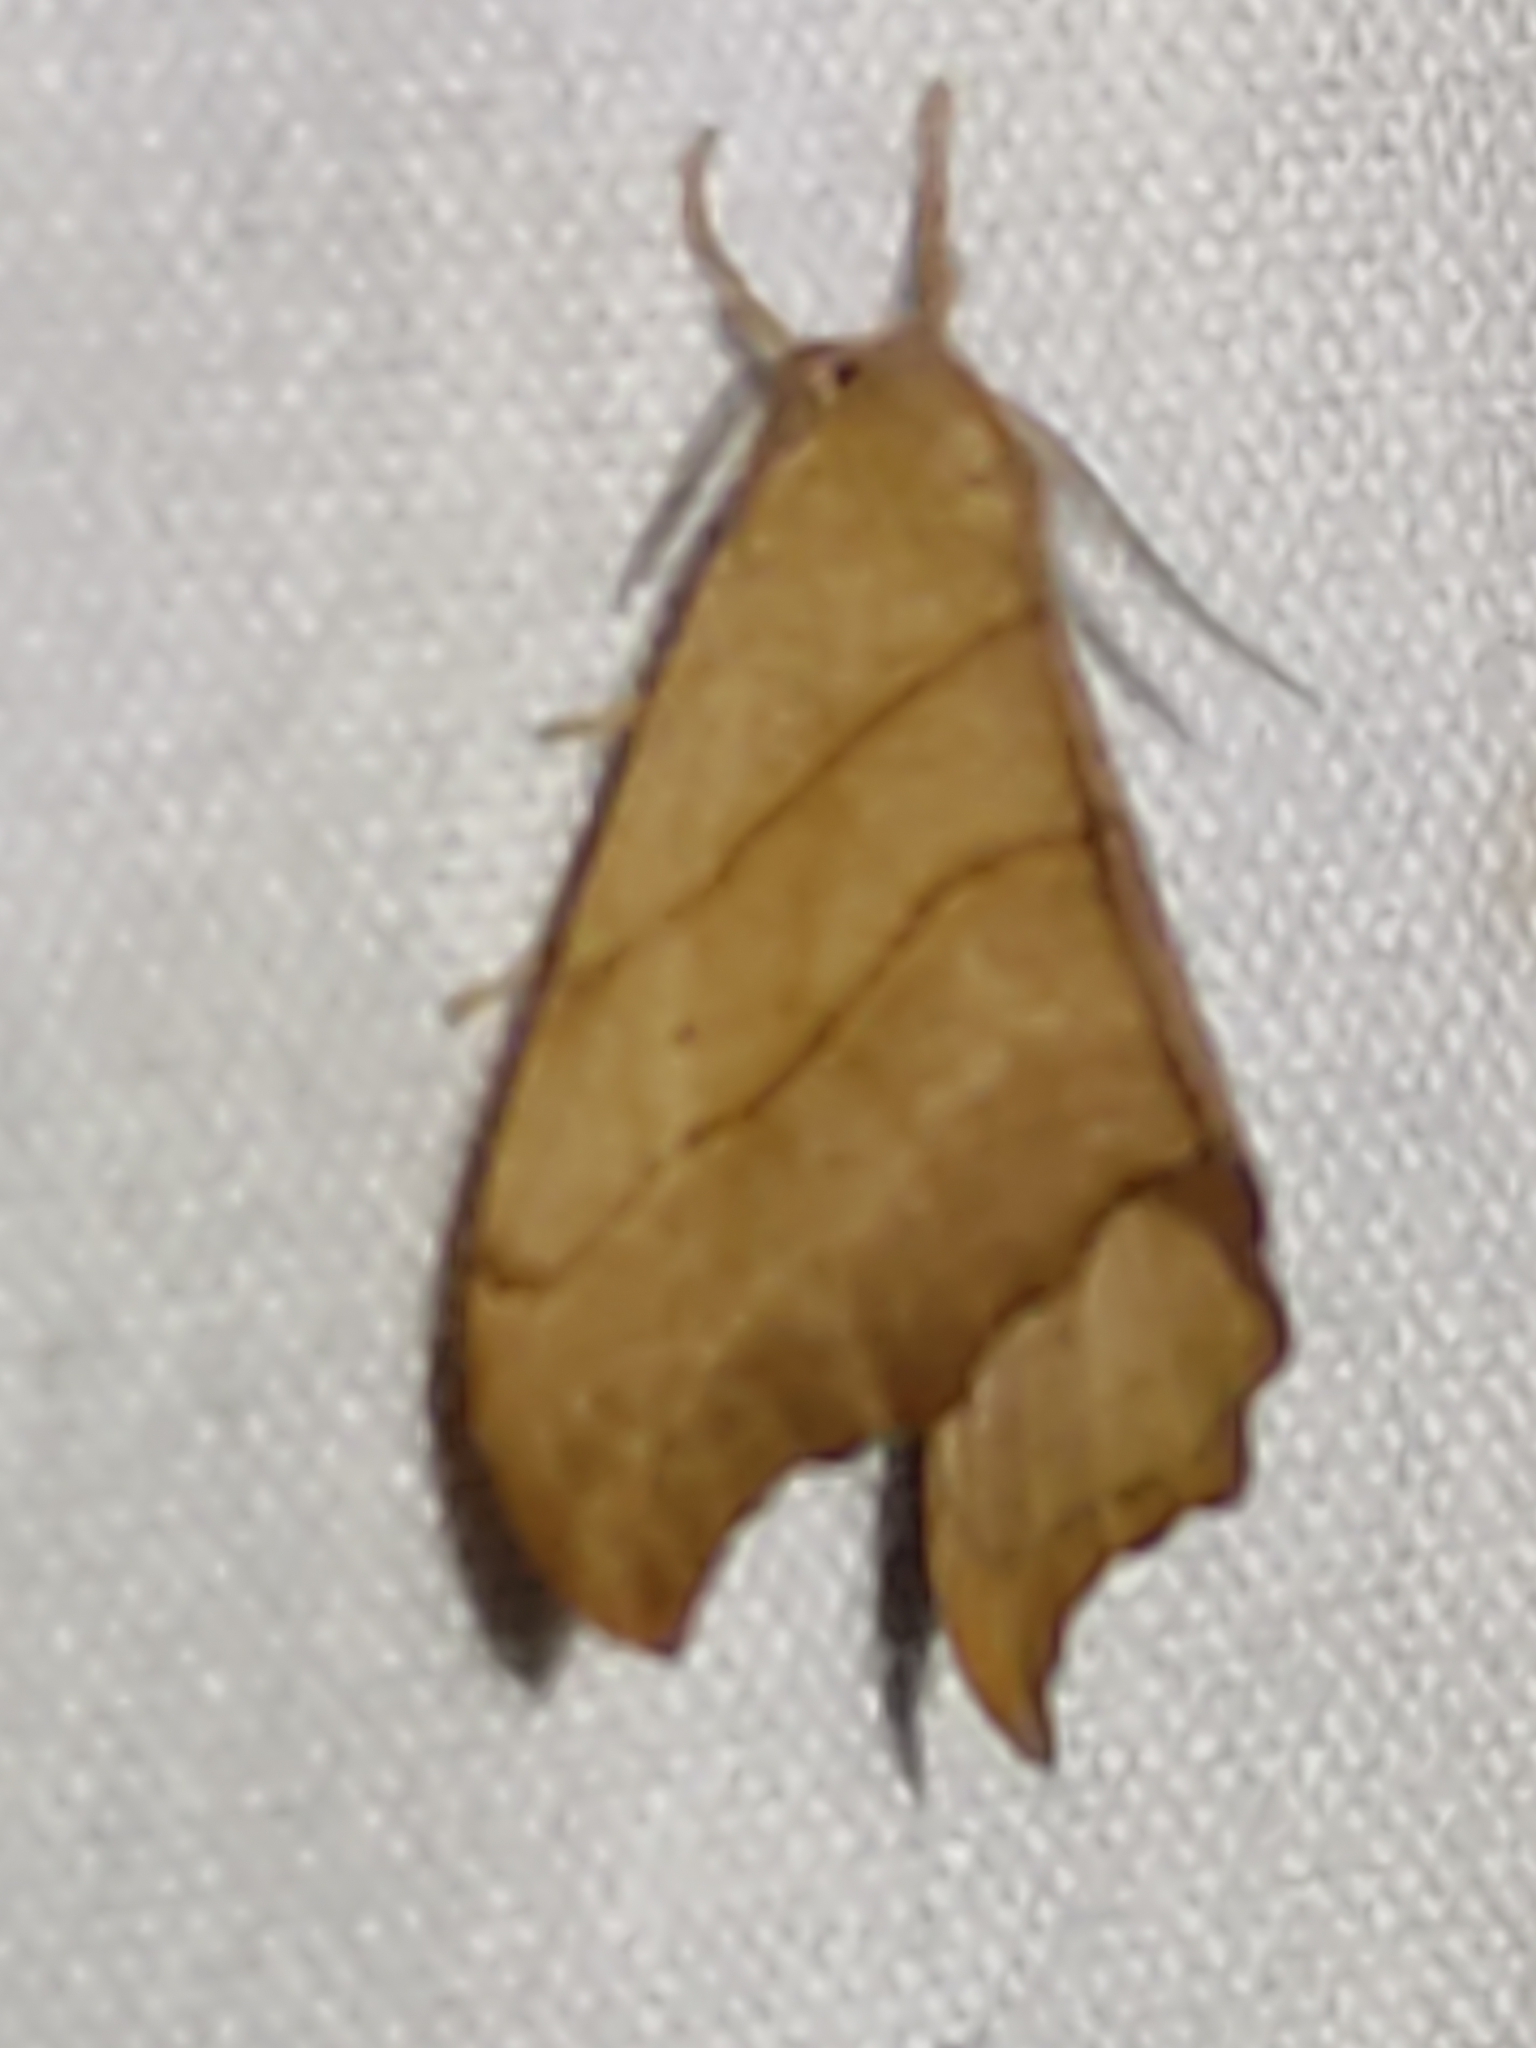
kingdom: Animalia
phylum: Arthropoda
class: Insecta
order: Lepidoptera
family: Drepanidae
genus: Falcaria
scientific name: Falcaria lacertinaria
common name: Scalloped hook-tip
